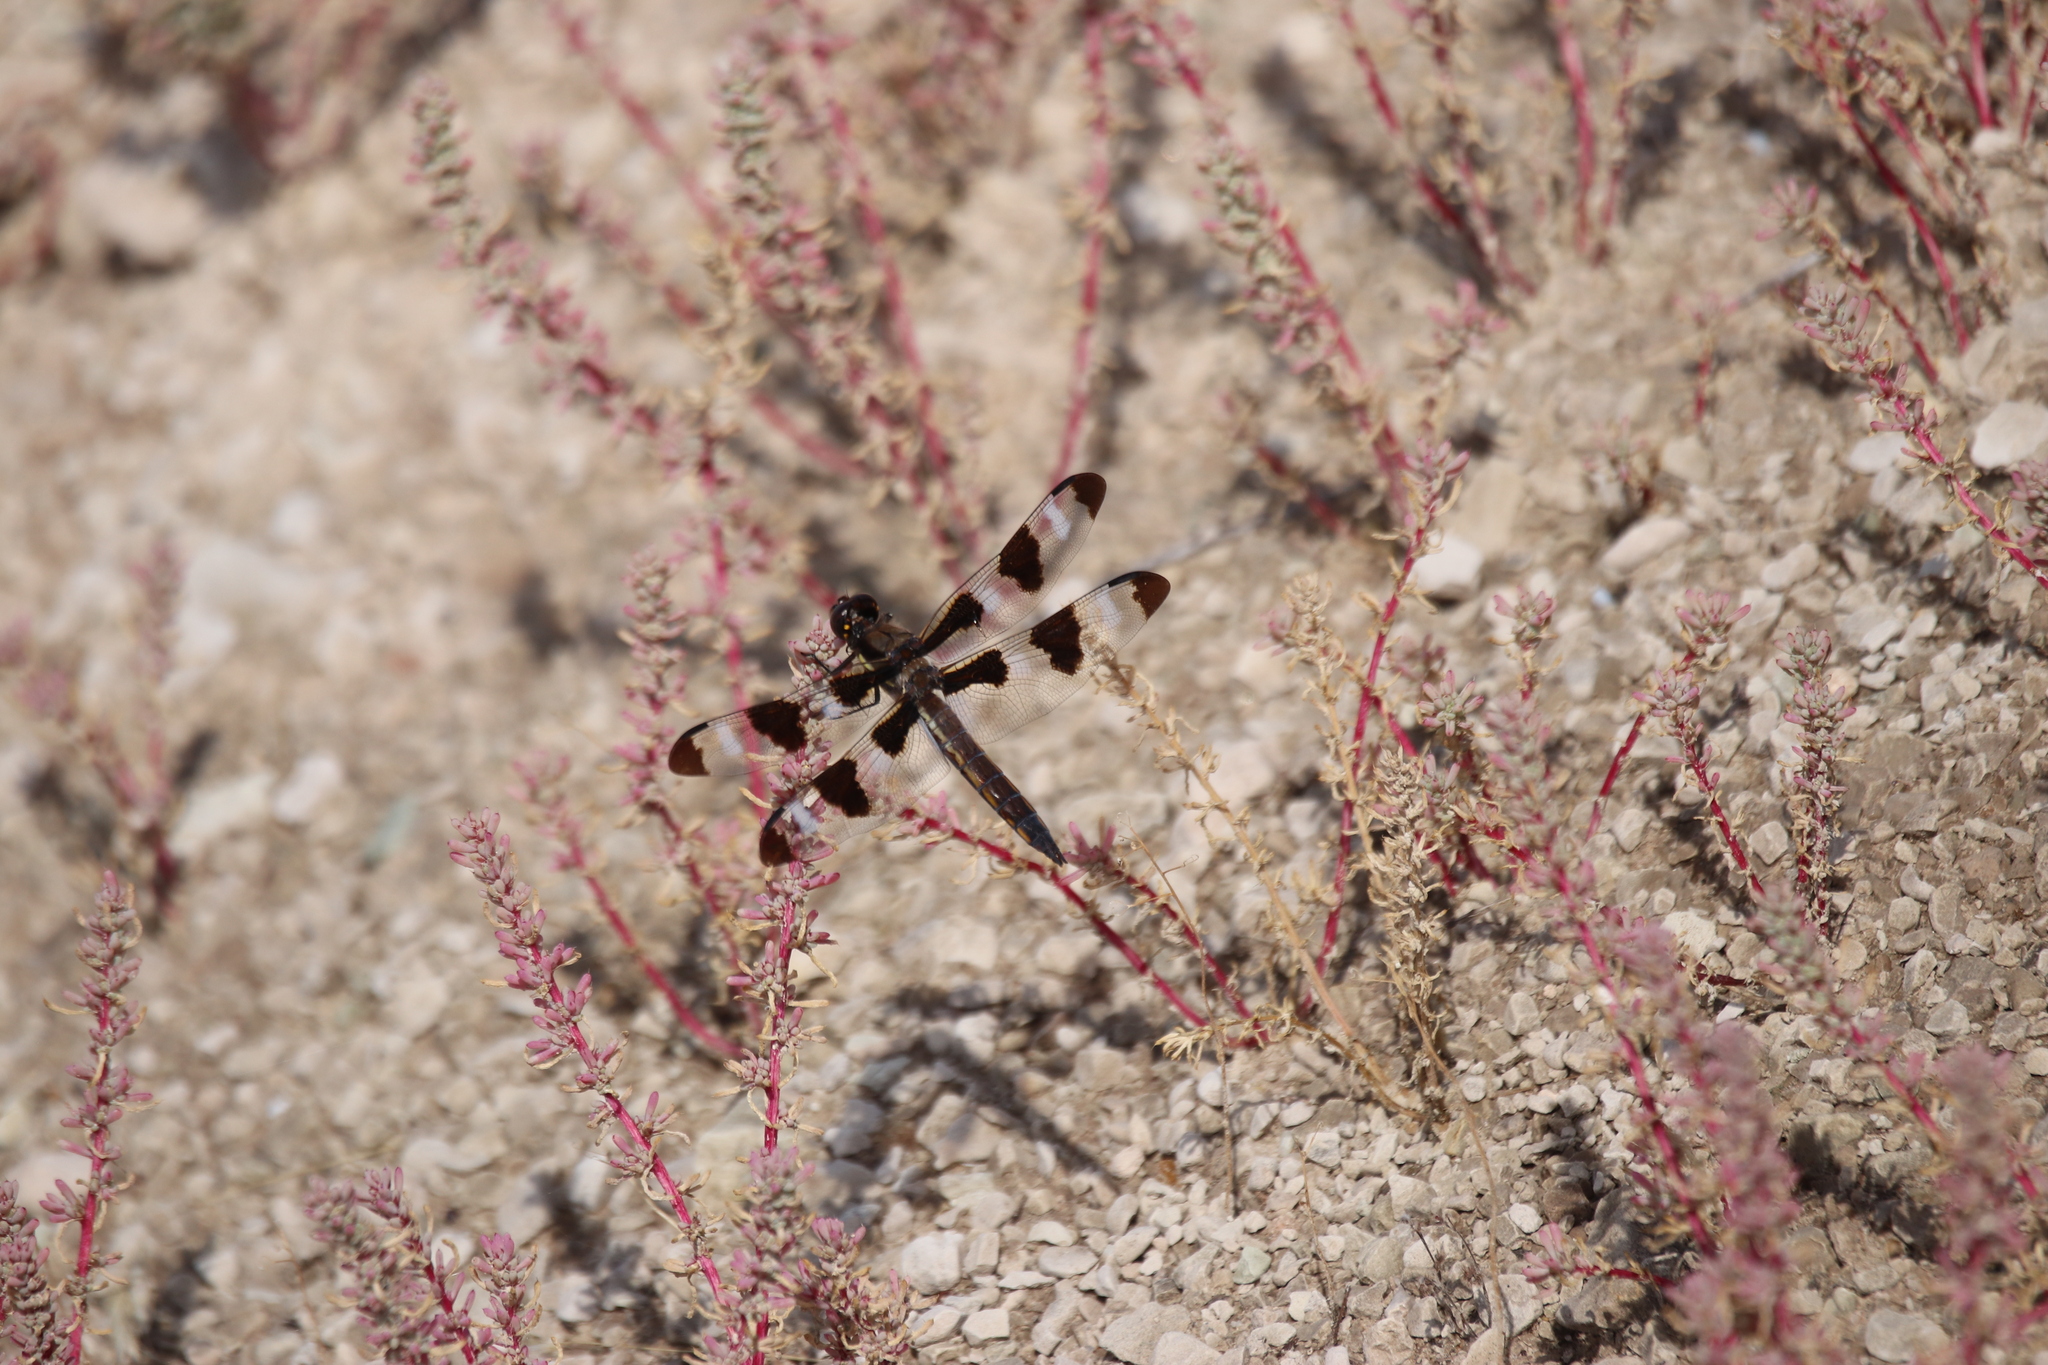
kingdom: Animalia
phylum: Arthropoda
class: Insecta
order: Odonata
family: Libellulidae
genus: Libellula
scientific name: Libellula pulchella
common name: Twelve-spotted skimmer
